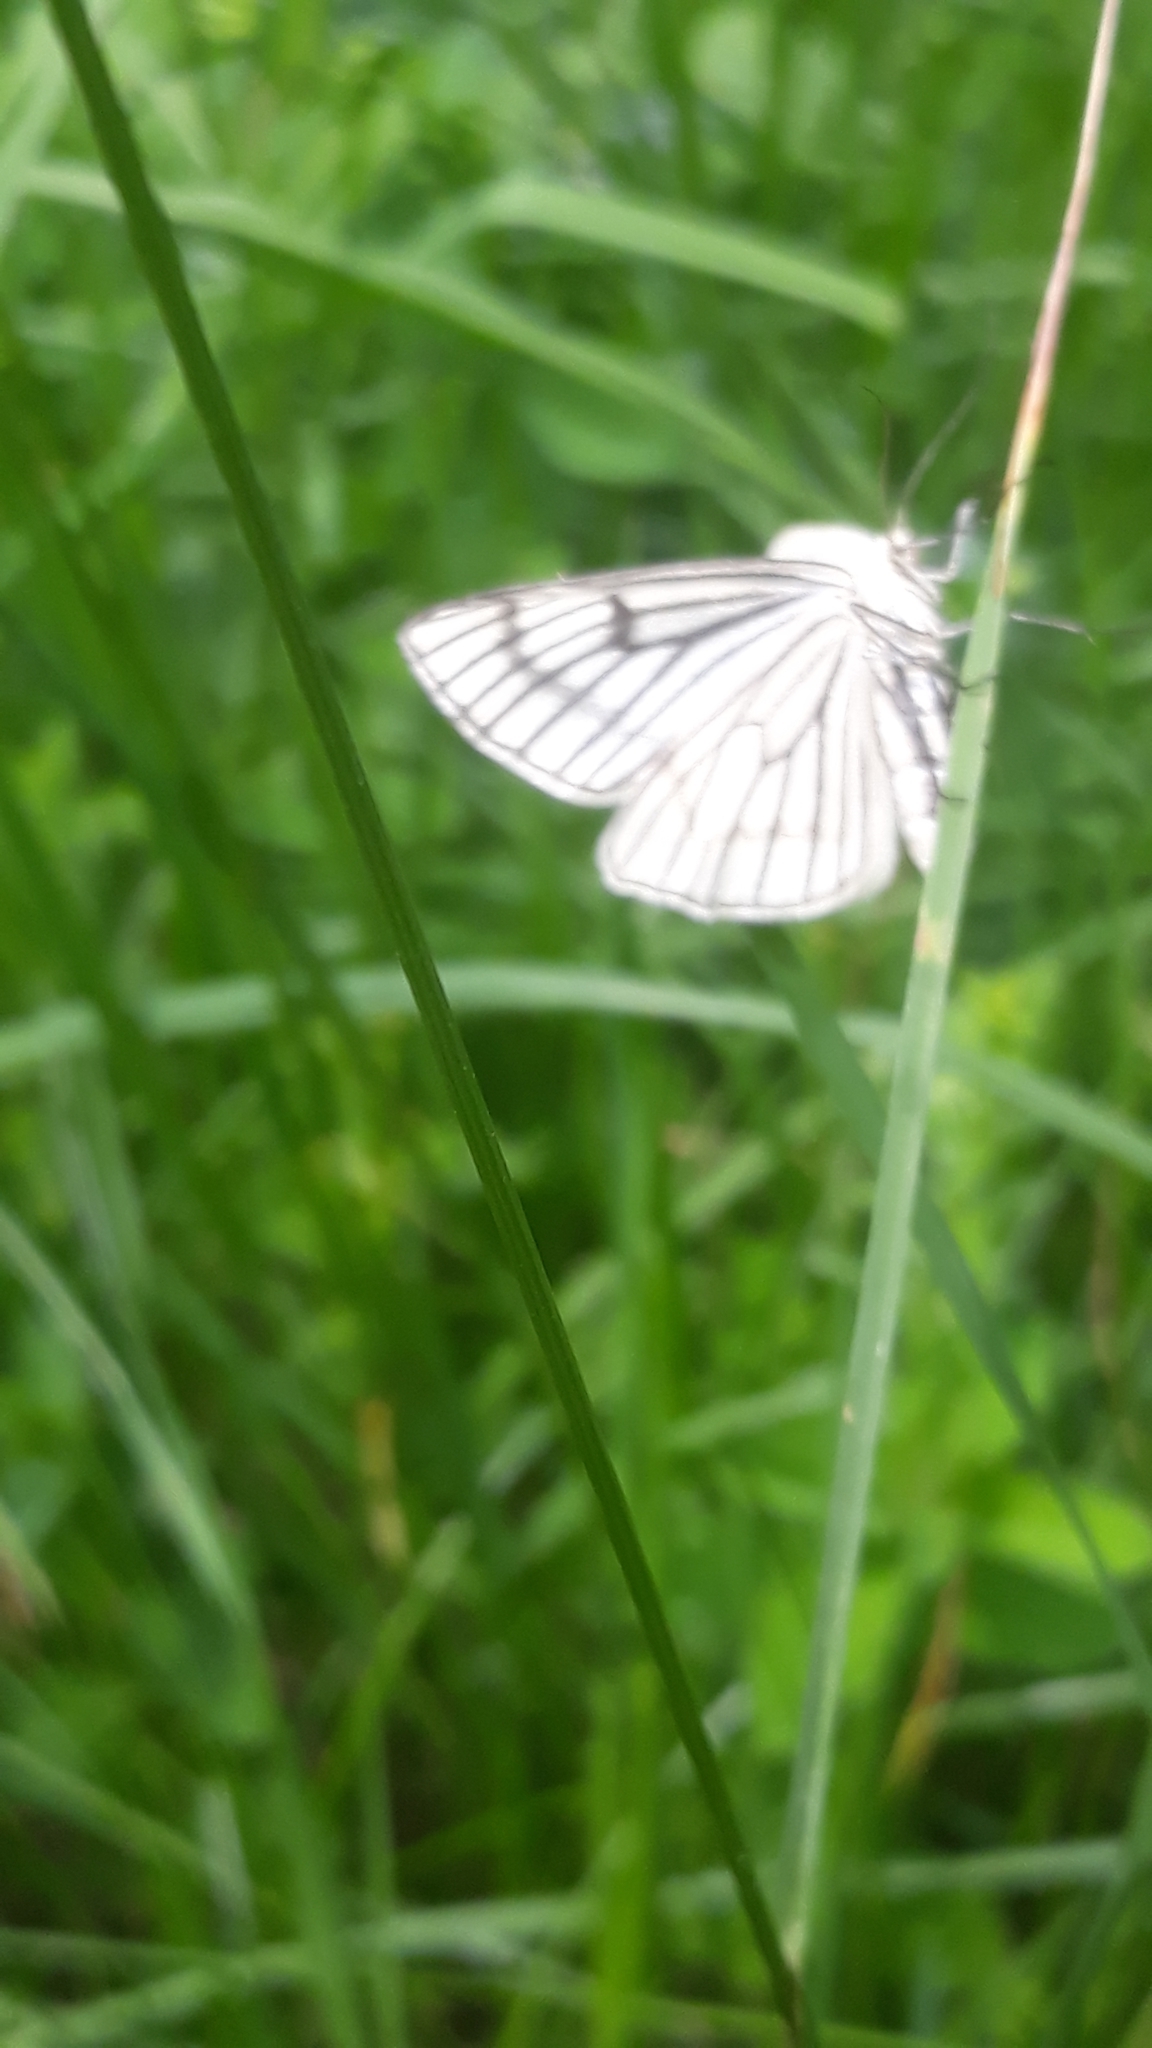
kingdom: Animalia
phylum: Arthropoda
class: Insecta
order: Lepidoptera
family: Geometridae
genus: Siona
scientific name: Siona lineata
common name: Black-veined moth
